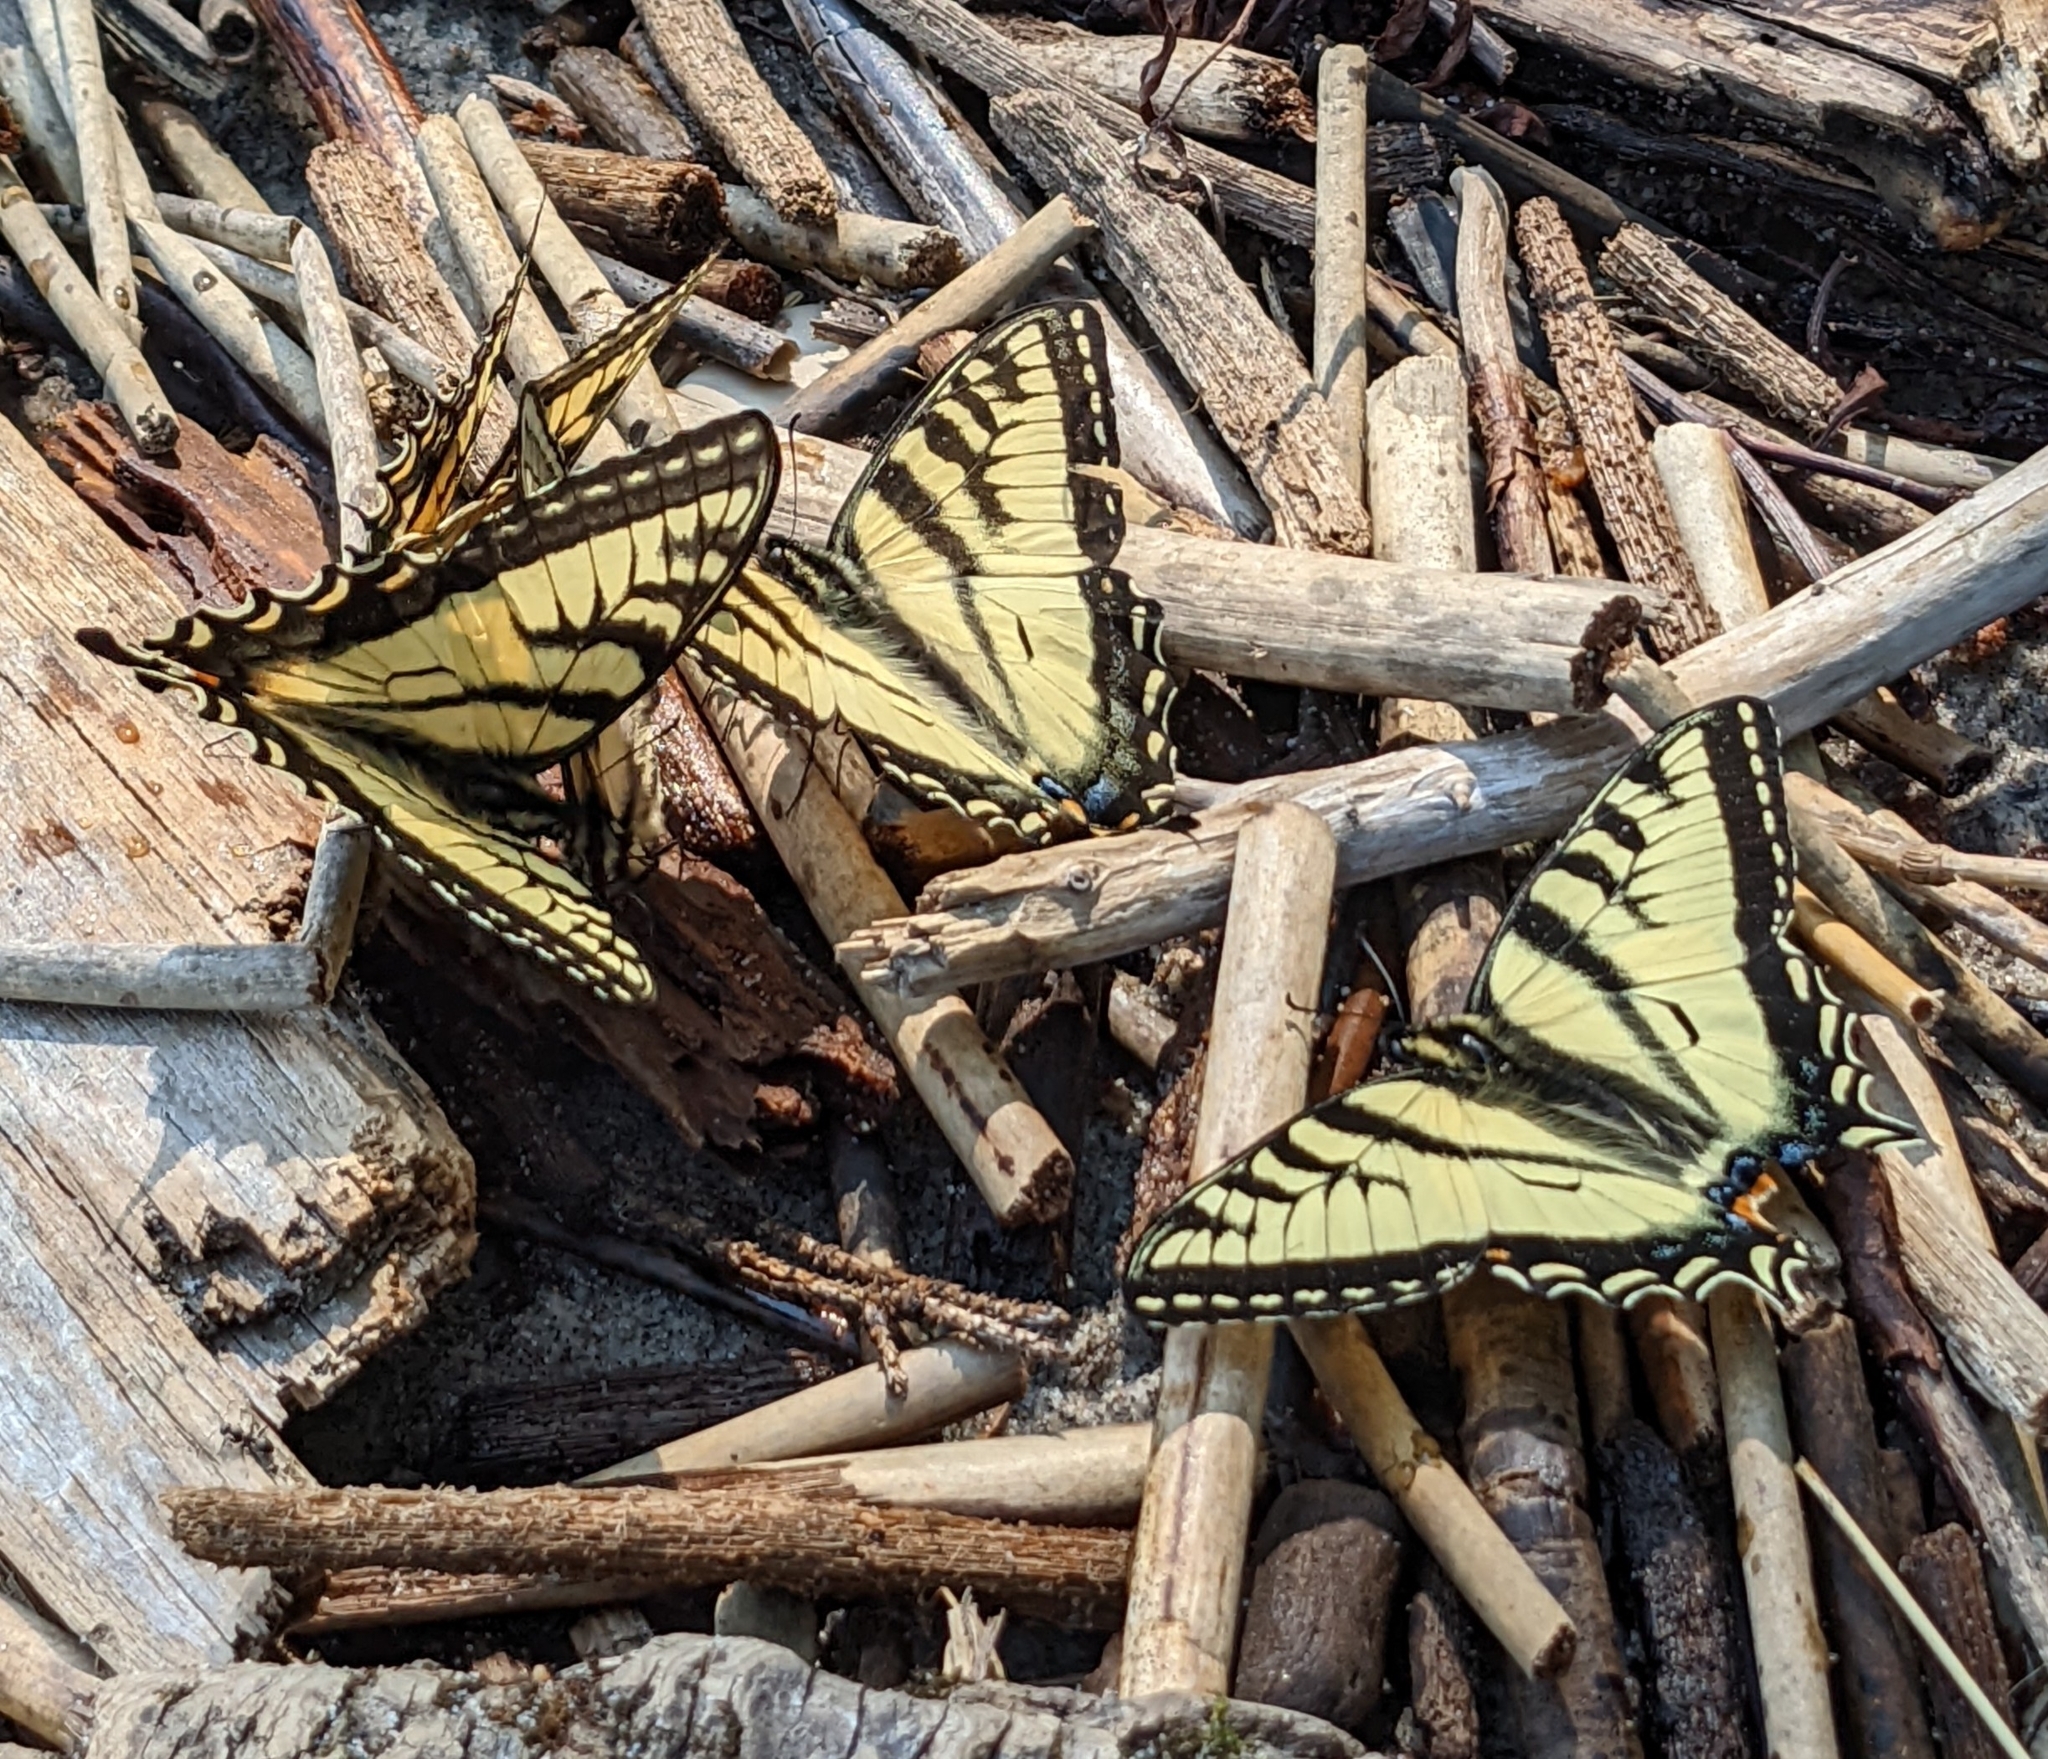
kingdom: Animalia
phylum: Arthropoda
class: Insecta
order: Lepidoptera
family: Papilionidae
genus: Papilio
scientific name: Papilio canadensis
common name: Canadian tiger swallowtail
